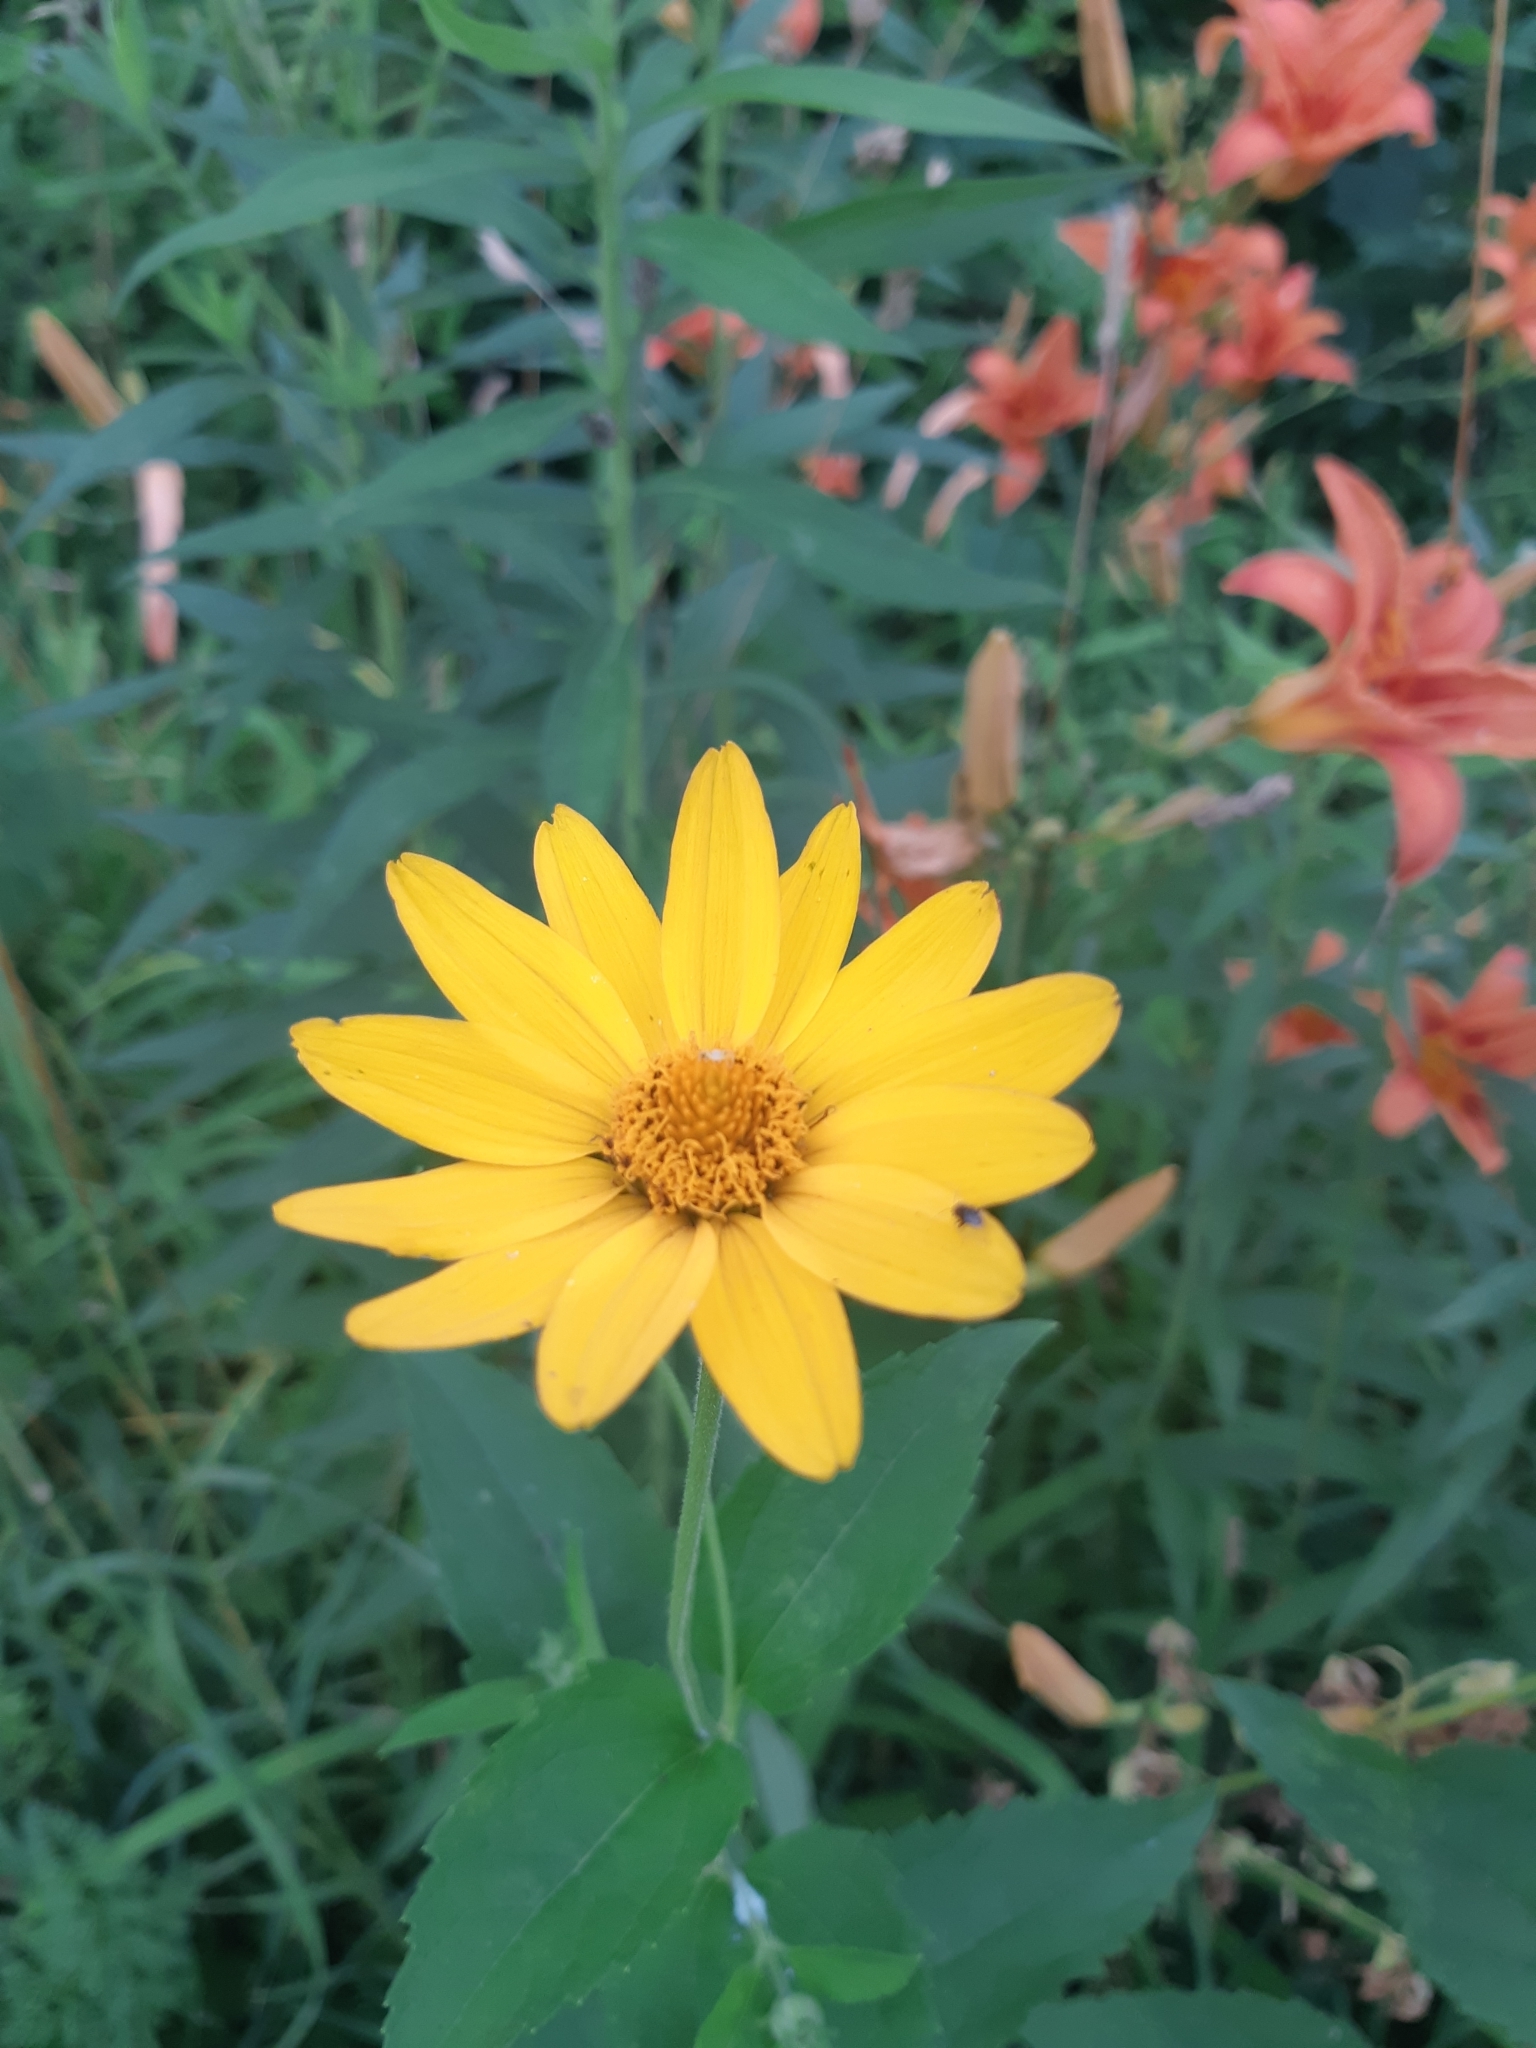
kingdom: Plantae
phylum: Tracheophyta
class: Magnoliopsida
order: Asterales
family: Asteraceae
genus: Heliopsis
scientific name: Heliopsis helianthoides
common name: False sunflower
